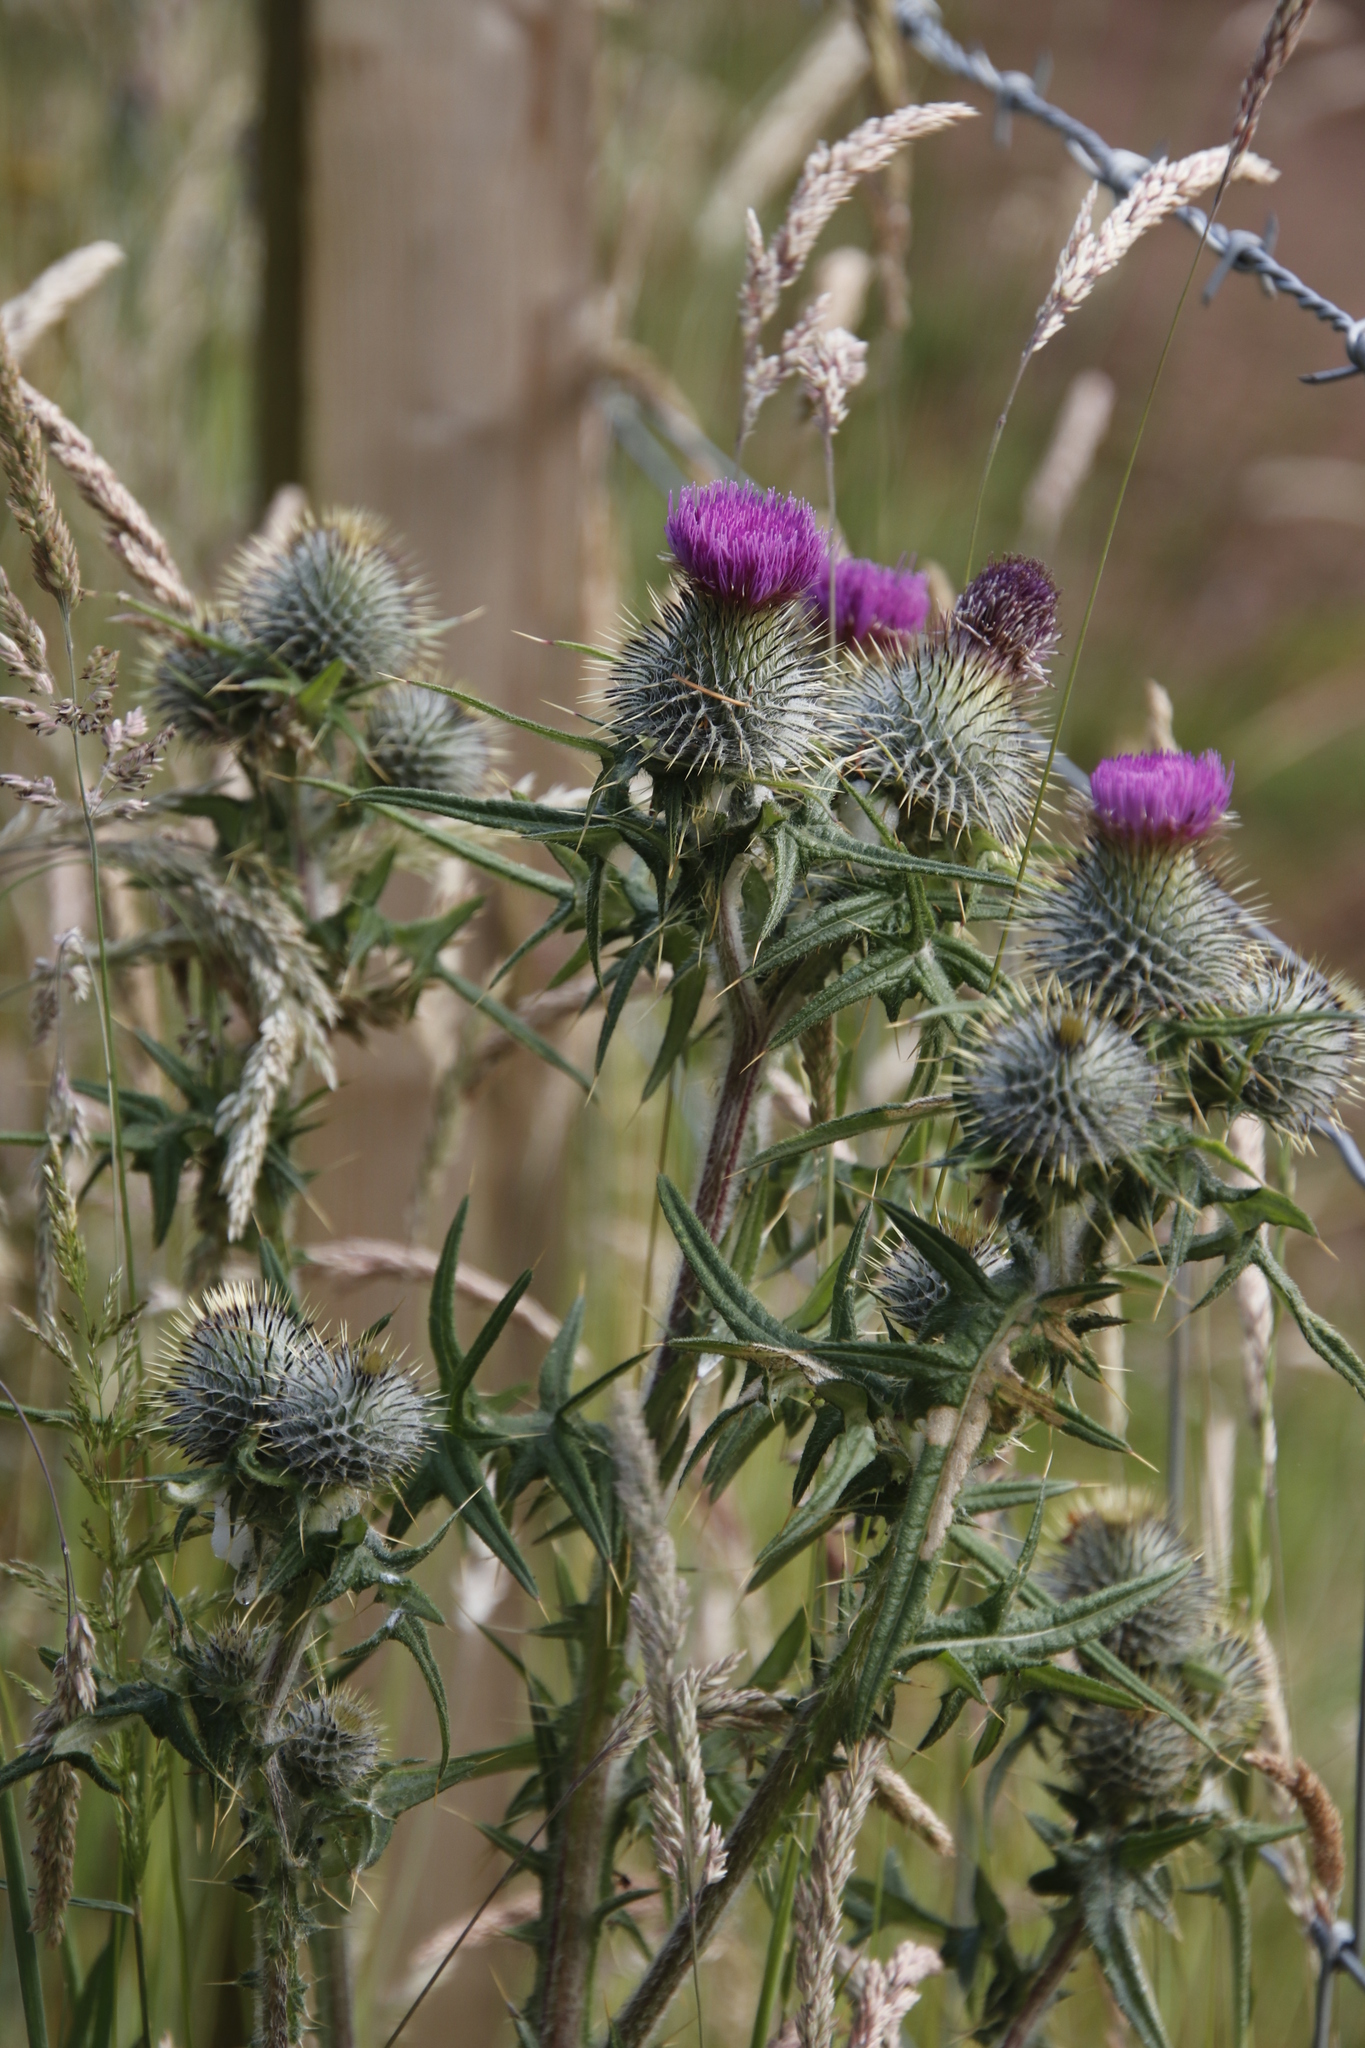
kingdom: Plantae
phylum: Tracheophyta
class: Magnoliopsida
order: Asterales
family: Asteraceae
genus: Cirsium
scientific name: Cirsium vulgare
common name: Bull thistle
